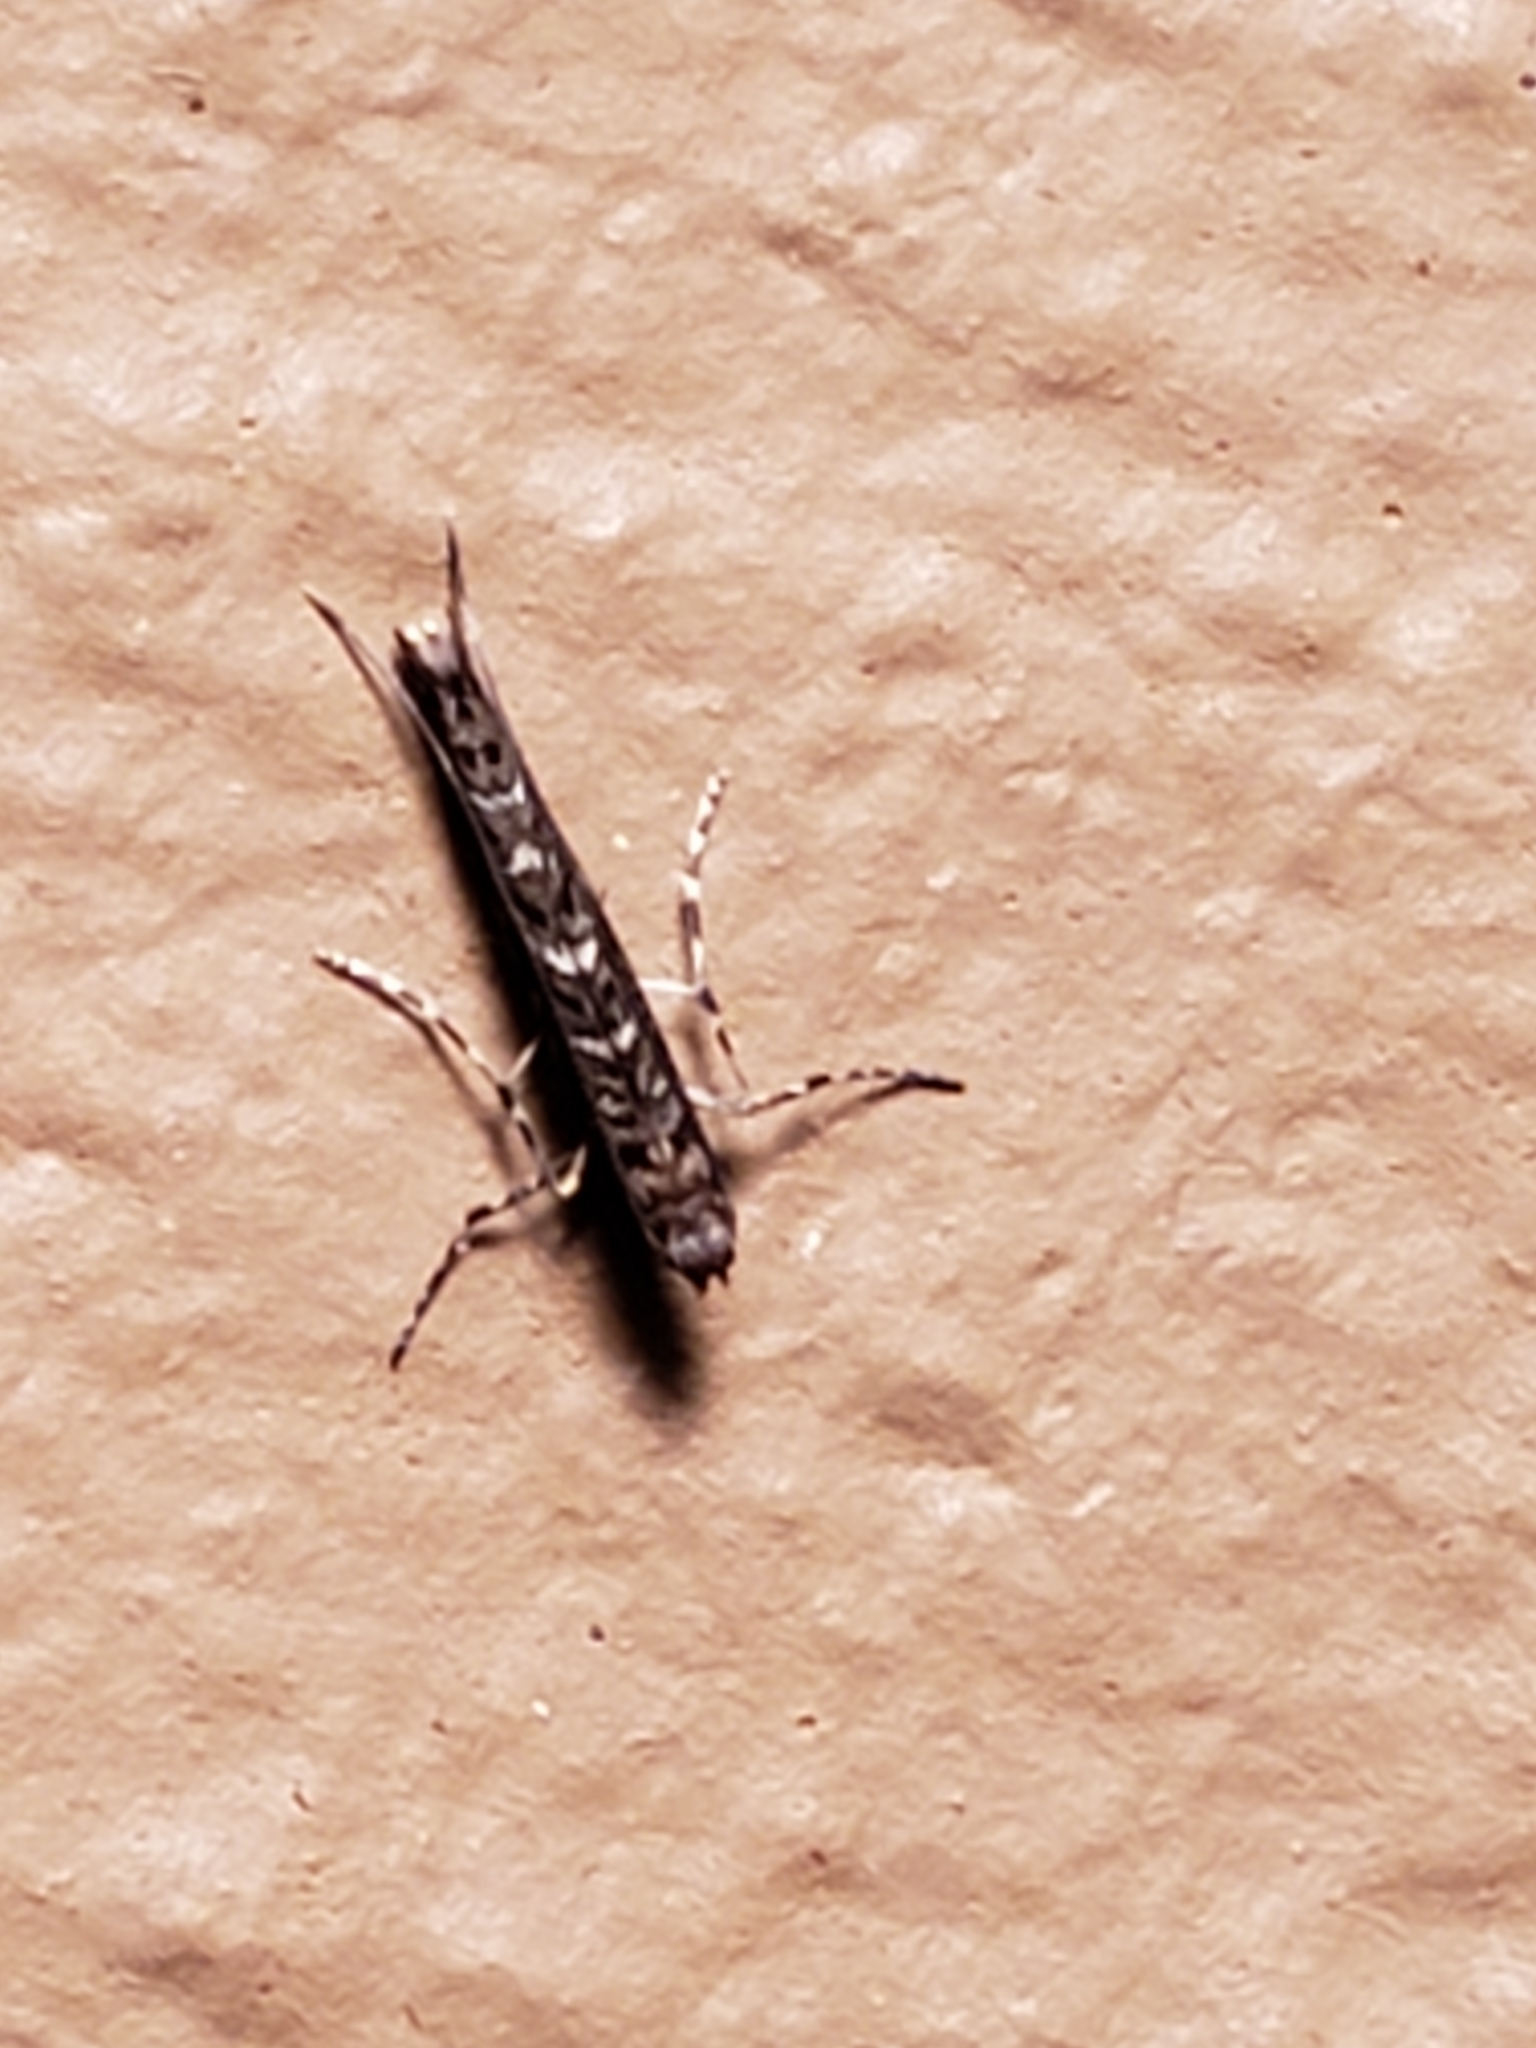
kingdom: Animalia
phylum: Arthropoda
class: Insecta
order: Lepidoptera
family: Gracillariidae
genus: Neurobathra
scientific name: Neurobathra strigifinitella
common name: Finite-channeled leafminer moth
